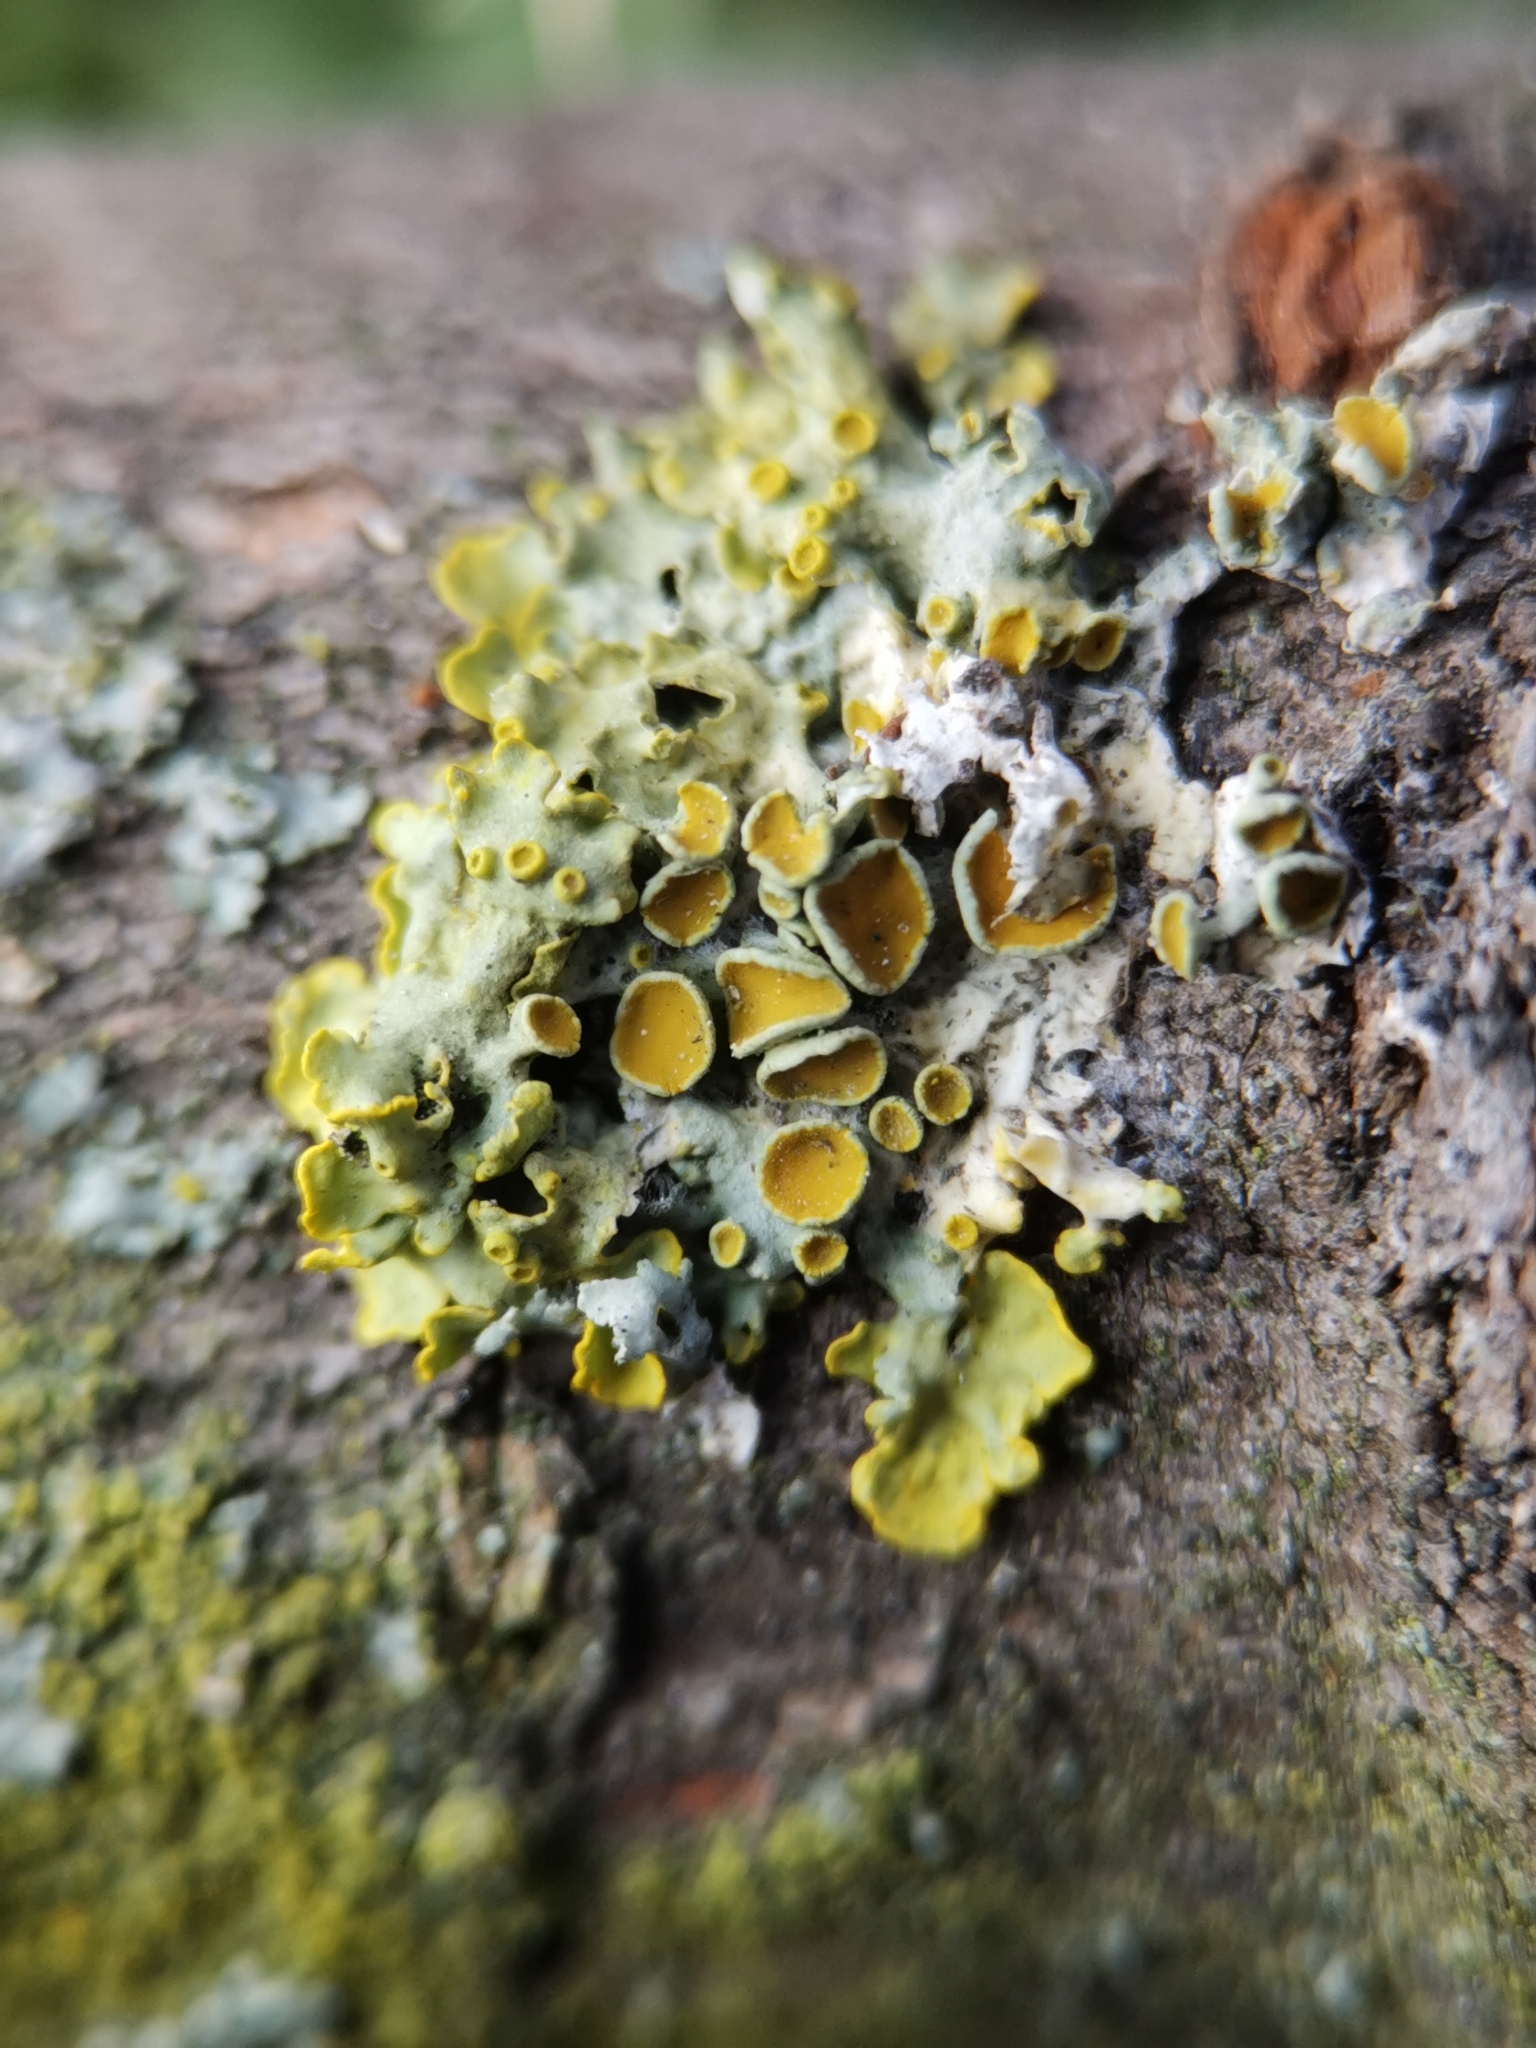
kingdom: Fungi
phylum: Ascomycota
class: Lecanoromycetes
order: Teloschistales
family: Teloschistaceae
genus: Xanthoria
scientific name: Xanthoria parietina
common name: Common orange lichen
